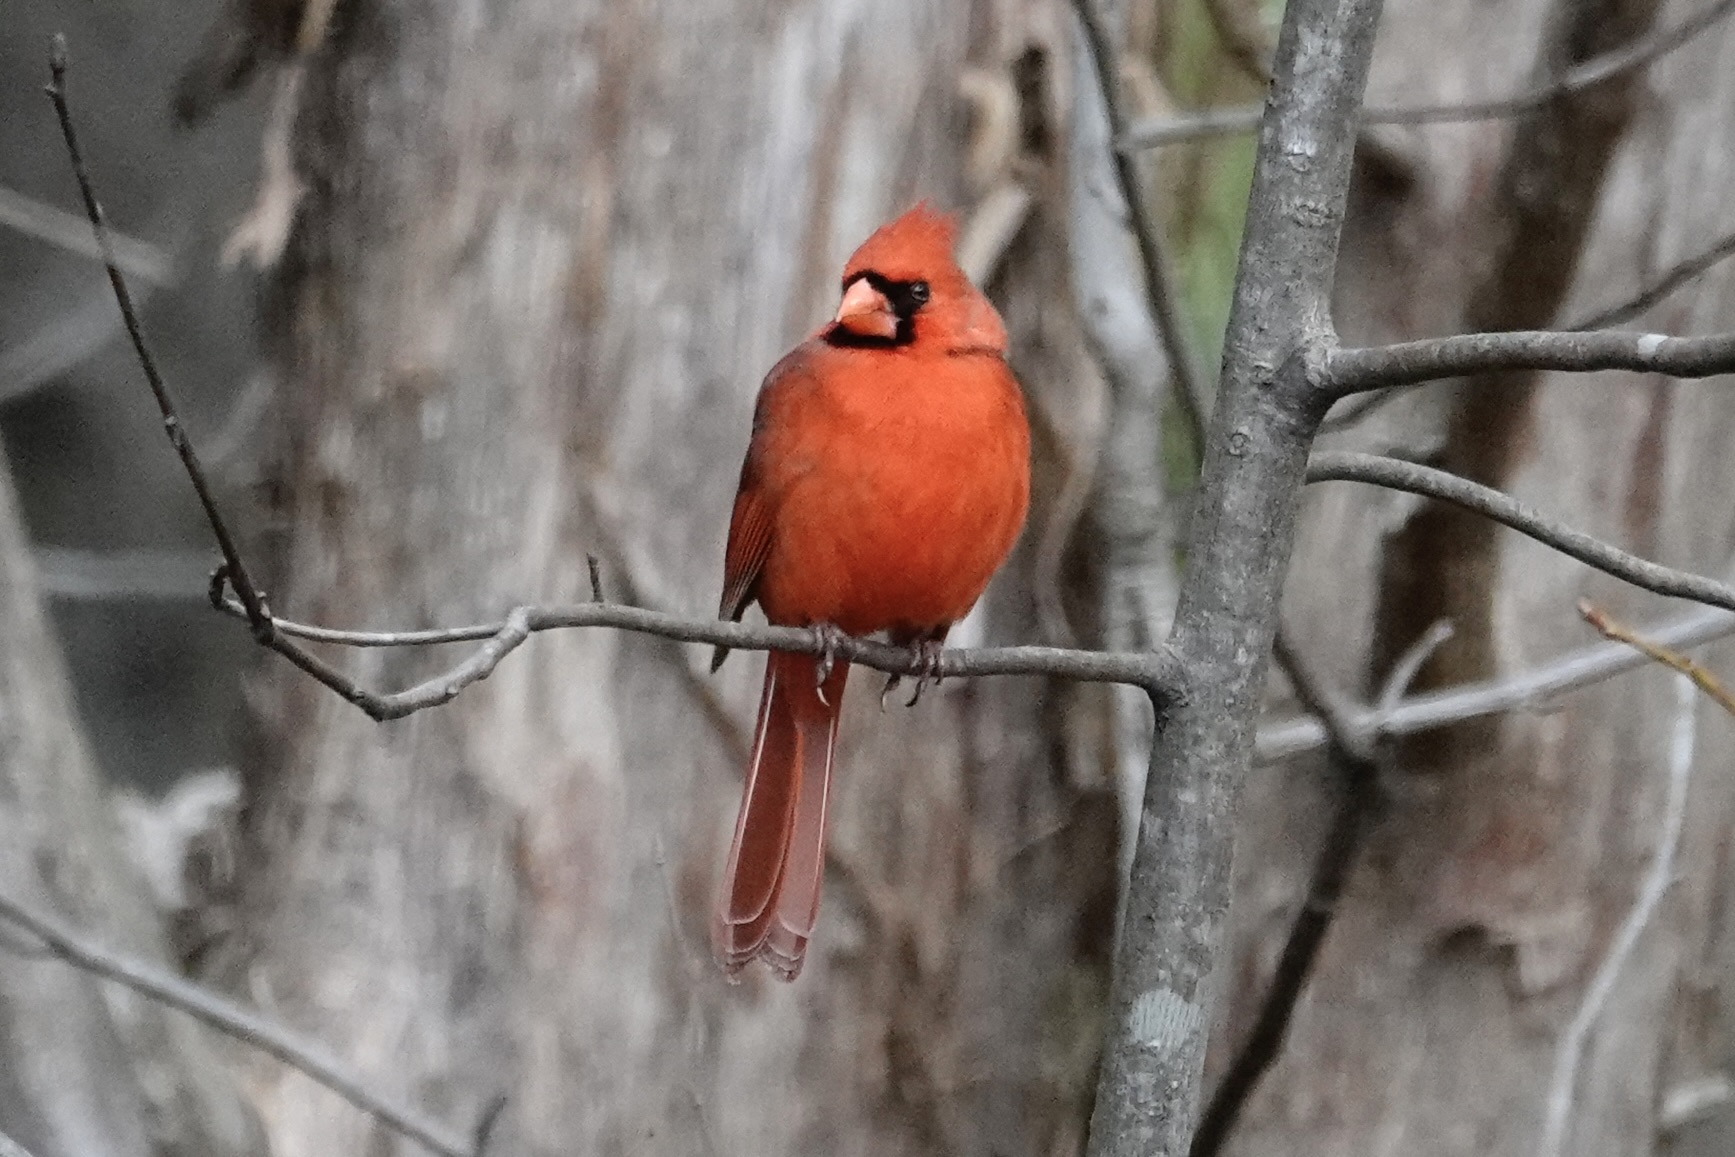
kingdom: Animalia
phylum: Chordata
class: Aves
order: Passeriformes
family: Cardinalidae
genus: Cardinalis
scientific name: Cardinalis cardinalis
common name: Northern cardinal
